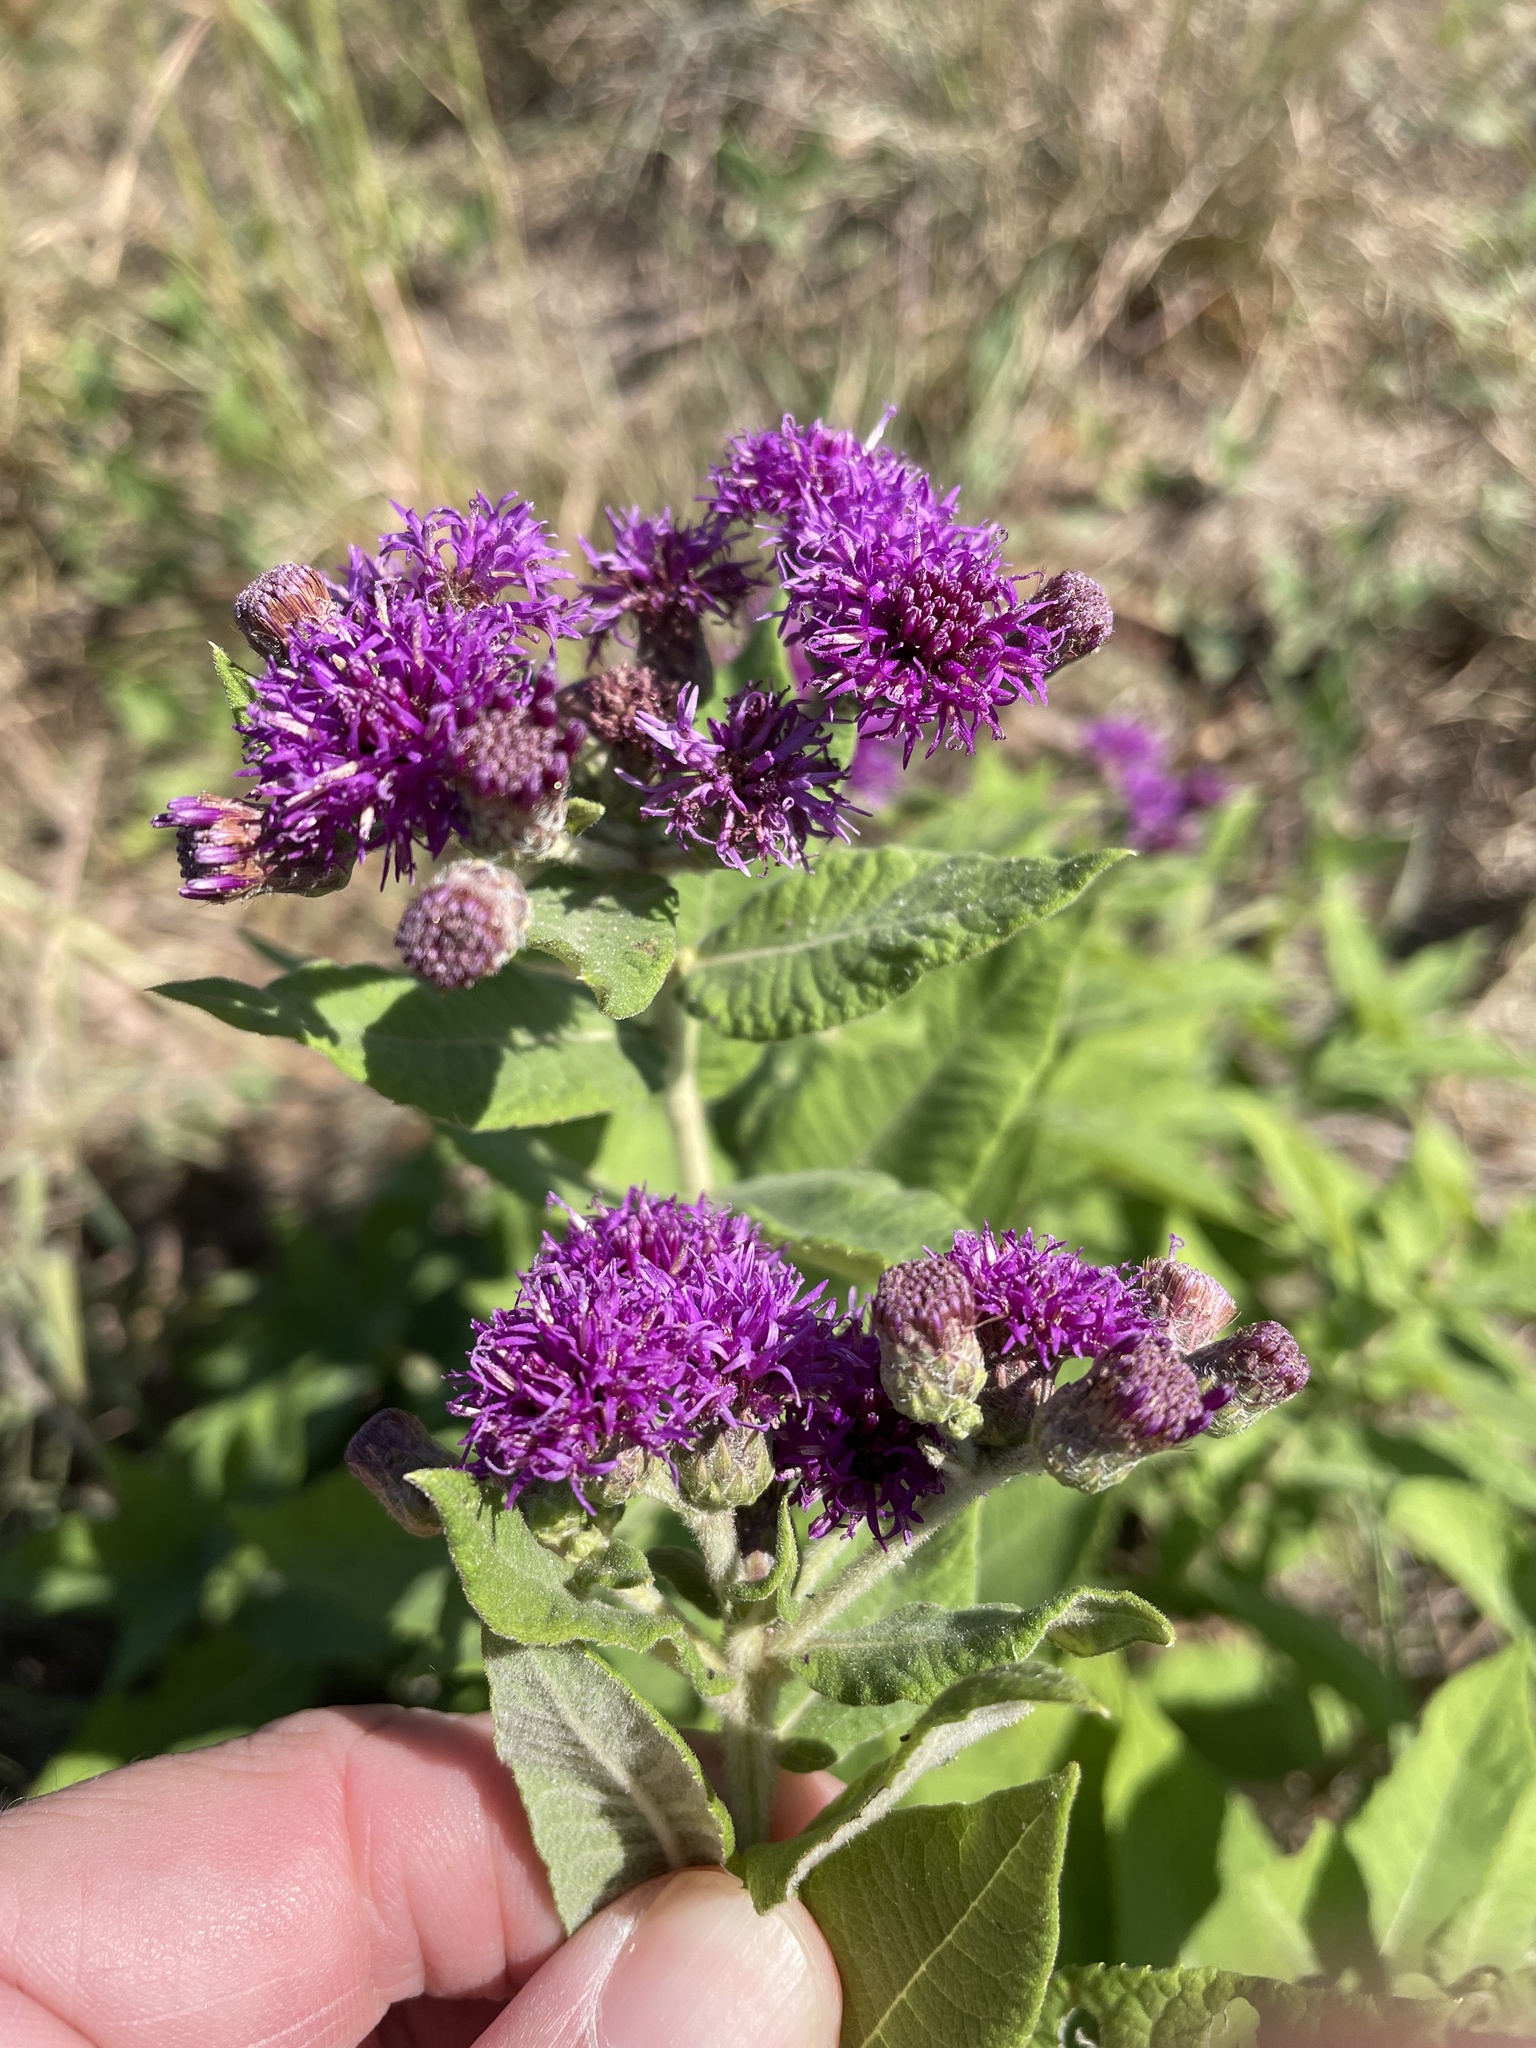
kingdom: Plantae
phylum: Tracheophyta
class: Magnoliopsida
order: Asterales
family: Asteraceae
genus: Vernonia
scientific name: Vernonia missurica
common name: Missouri ironweed
